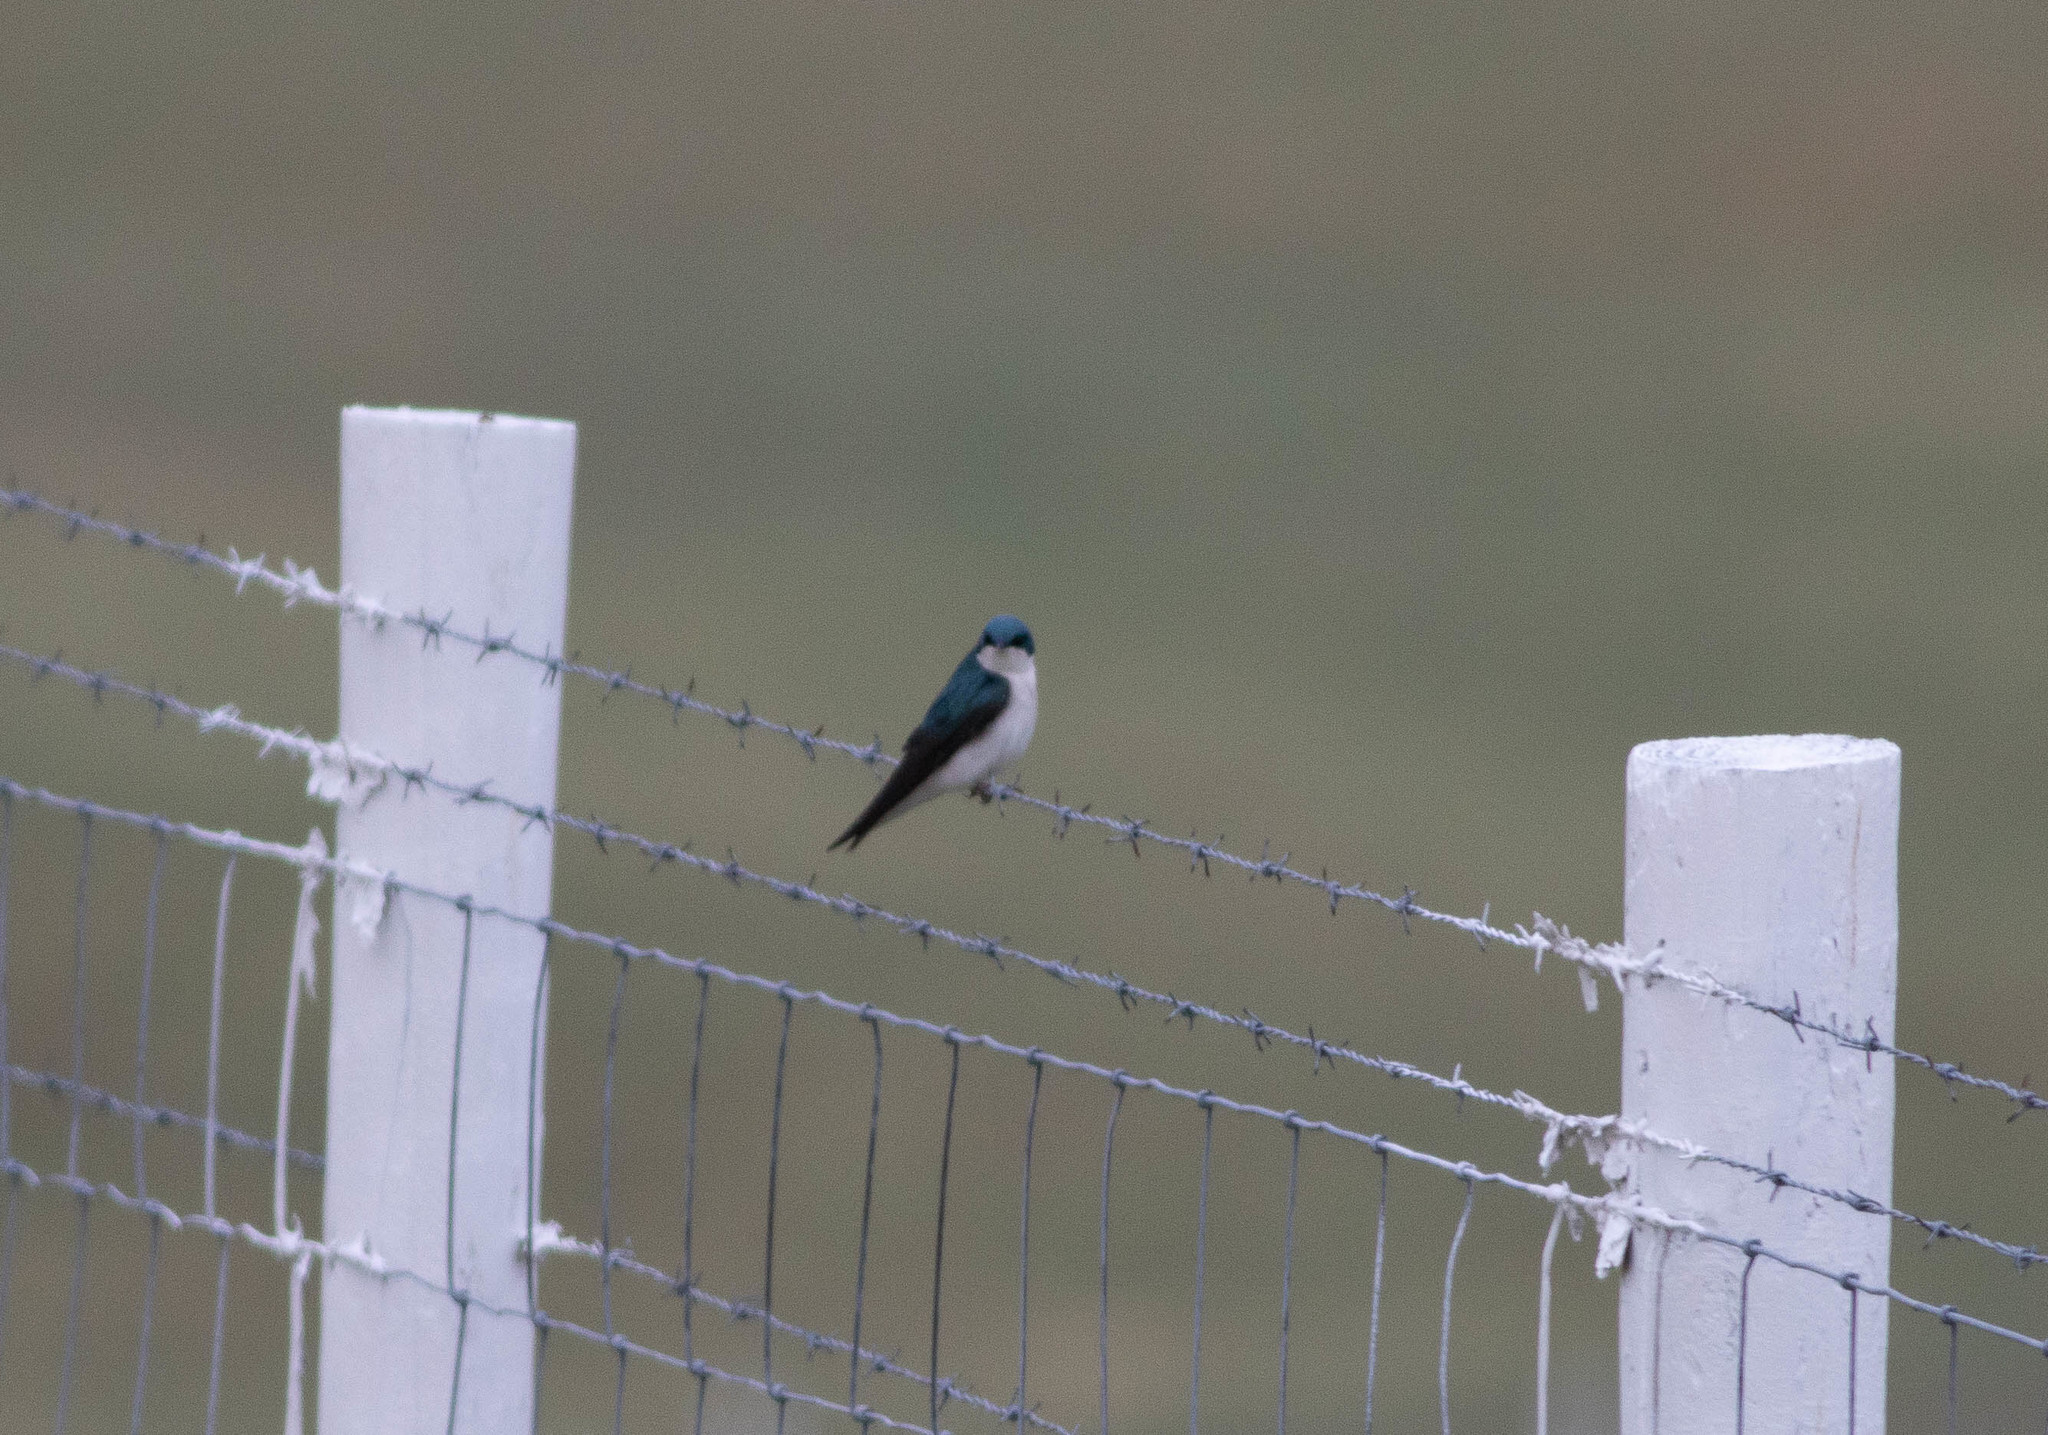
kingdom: Animalia
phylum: Chordata
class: Aves
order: Passeriformes
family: Hirundinidae
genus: Tachycineta
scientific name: Tachycineta bicolor
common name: Tree swallow
